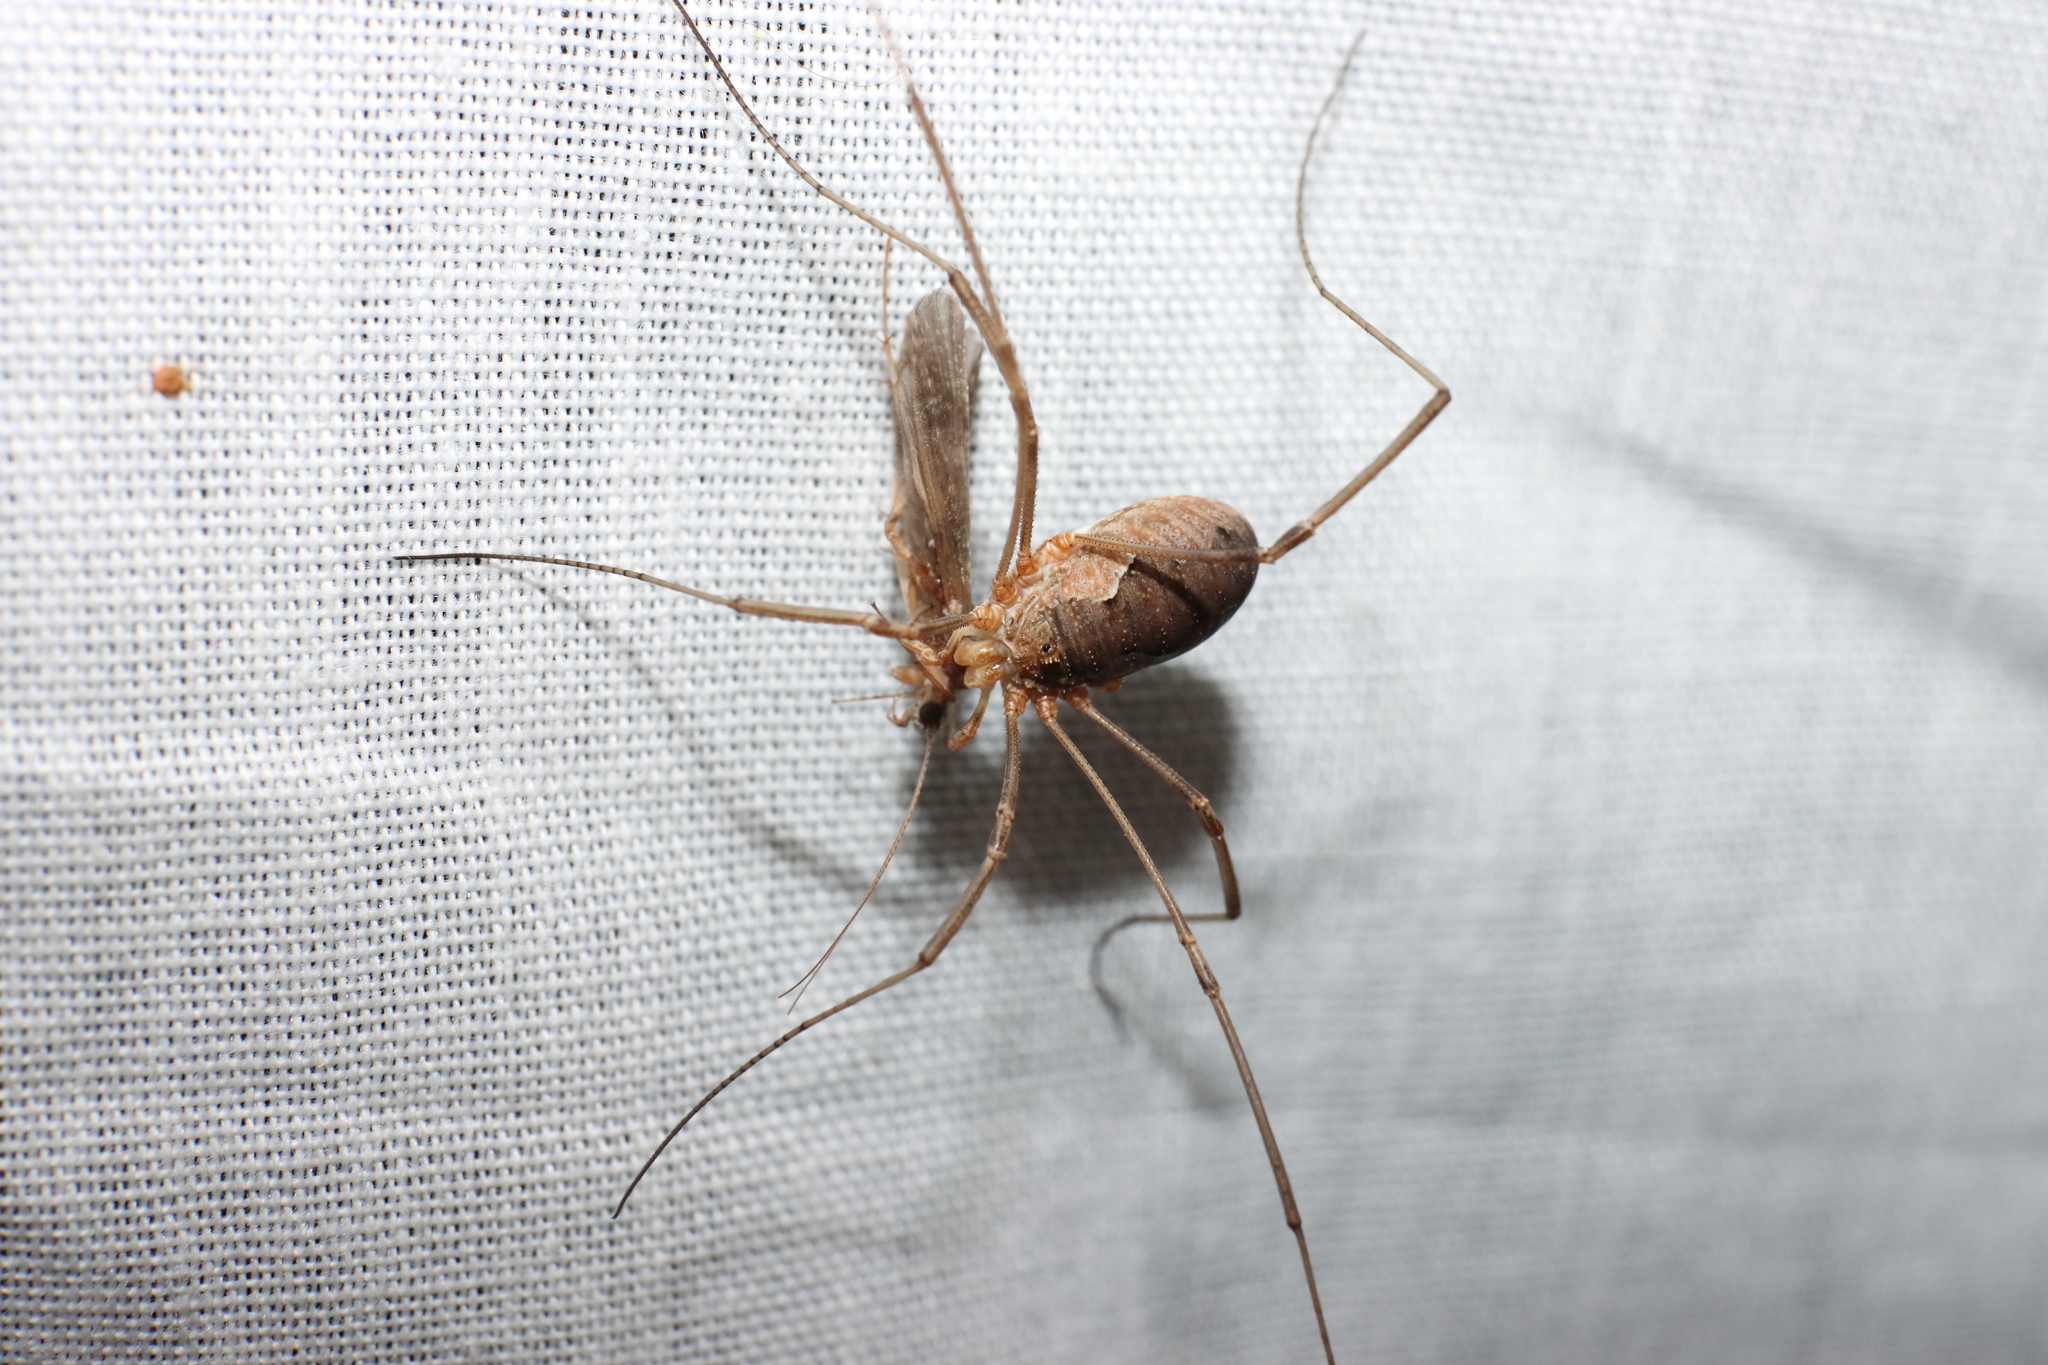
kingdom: Animalia
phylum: Arthropoda
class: Arachnida
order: Opiliones
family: Phalangiidae
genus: Phalangium
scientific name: Phalangium opilio
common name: Daddy longleg
